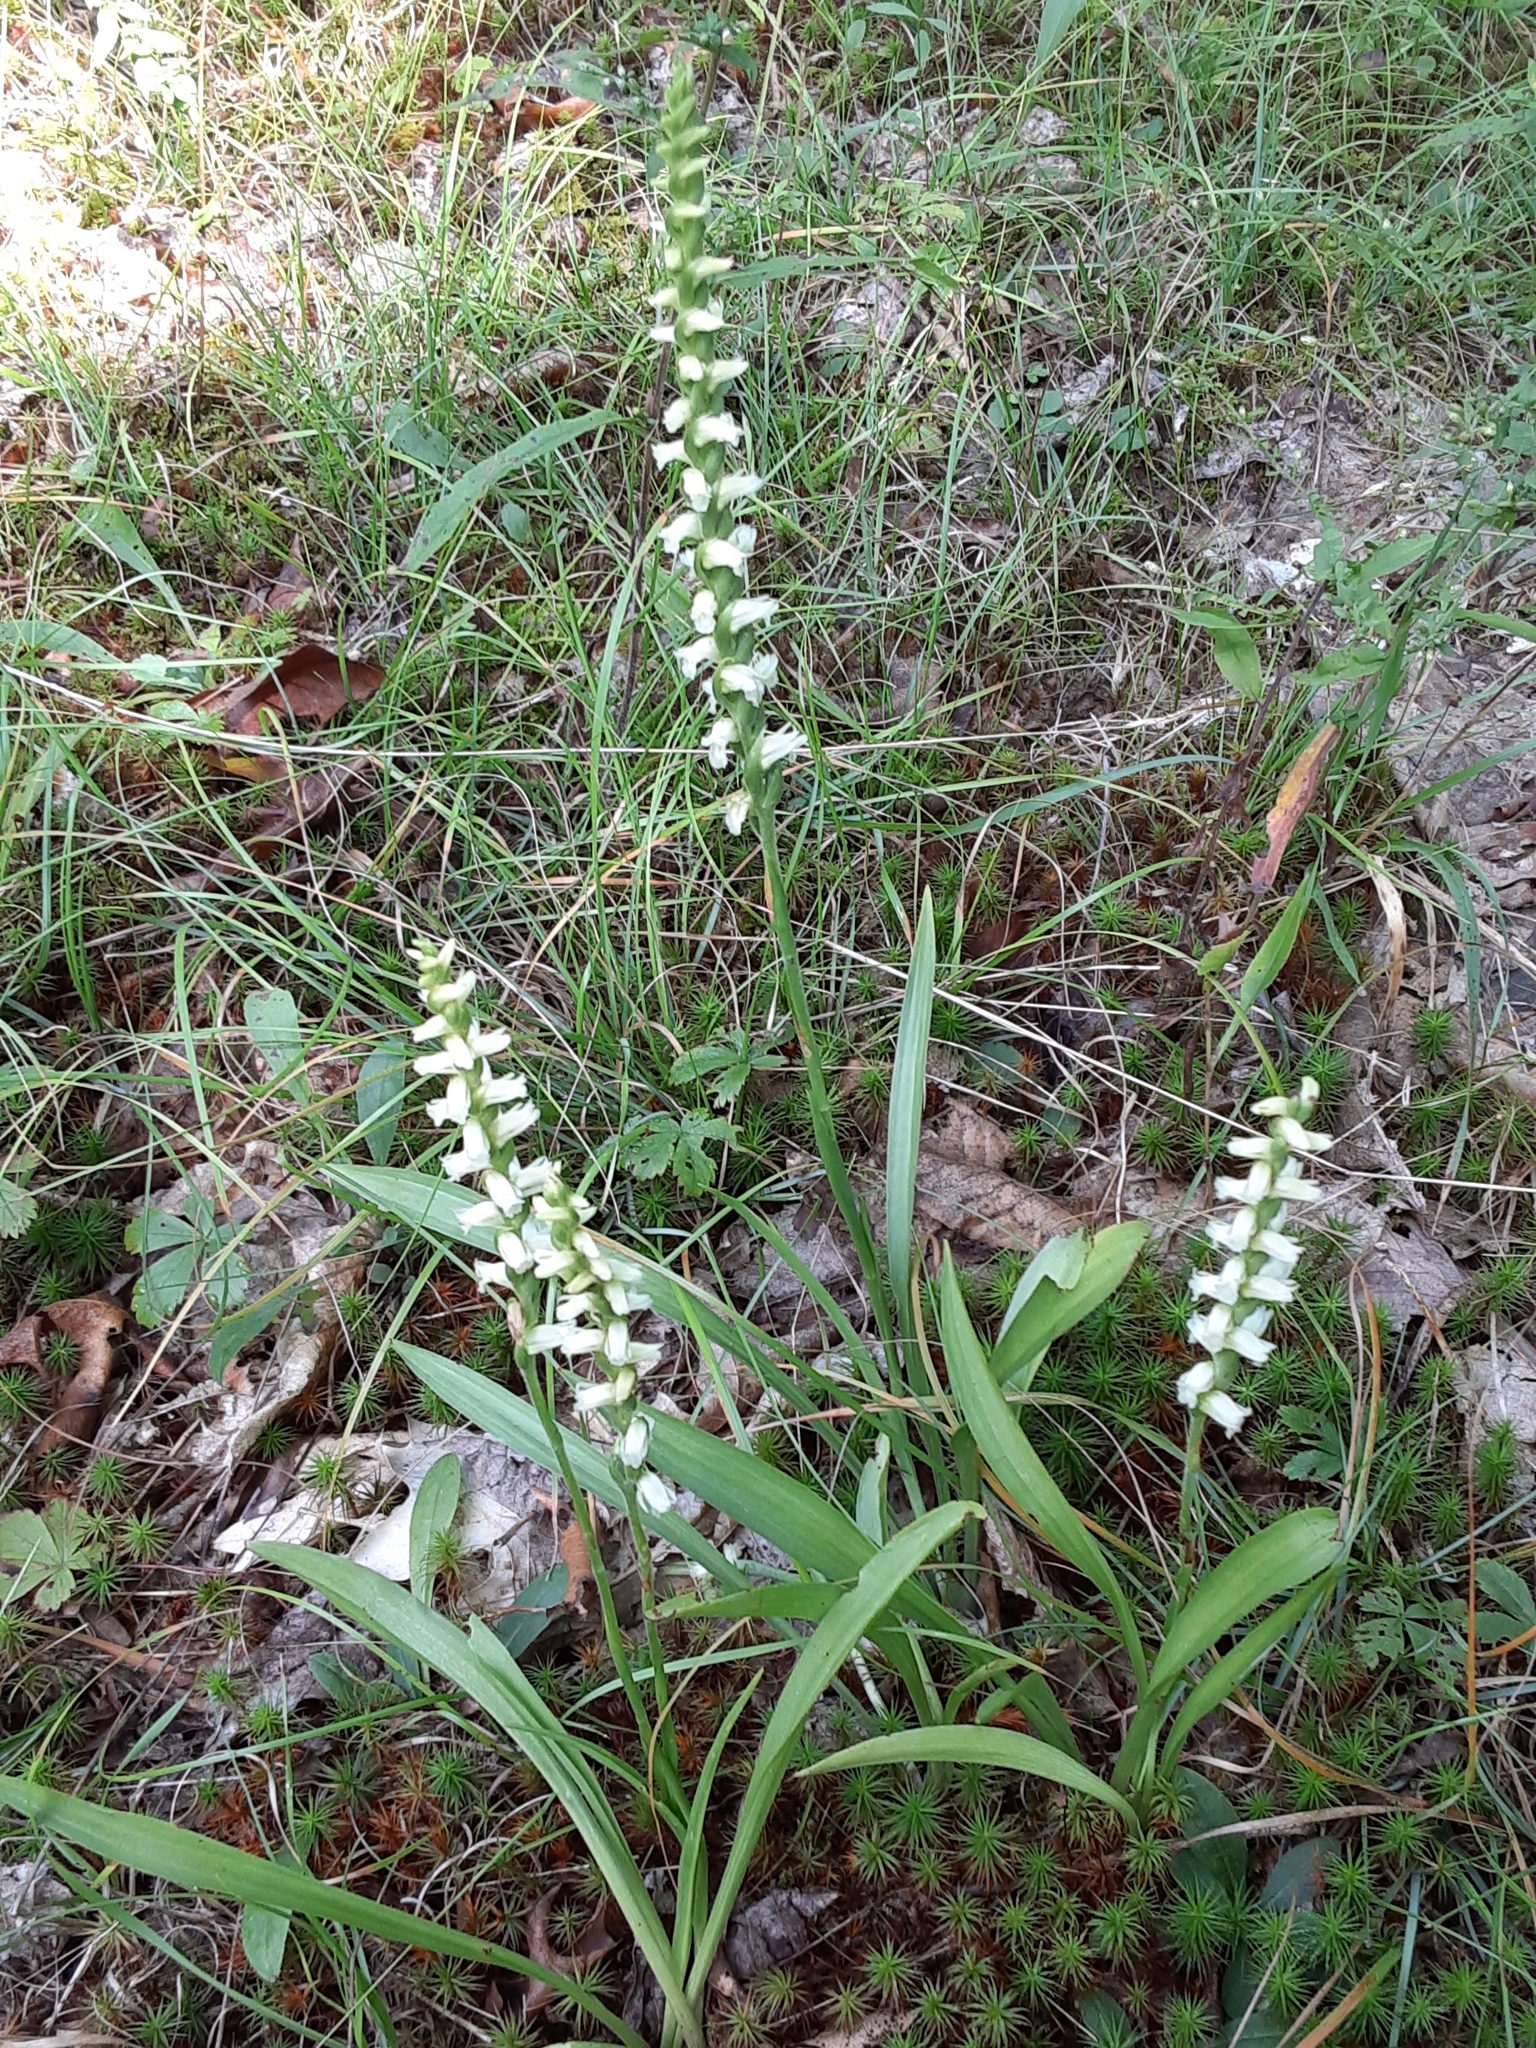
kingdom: Plantae
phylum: Tracheophyta
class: Liliopsida
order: Asparagales
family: Orchidaceae
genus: Spiranthes
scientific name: Spiranthes ochroleuca
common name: Yellow ladies'-tresses
